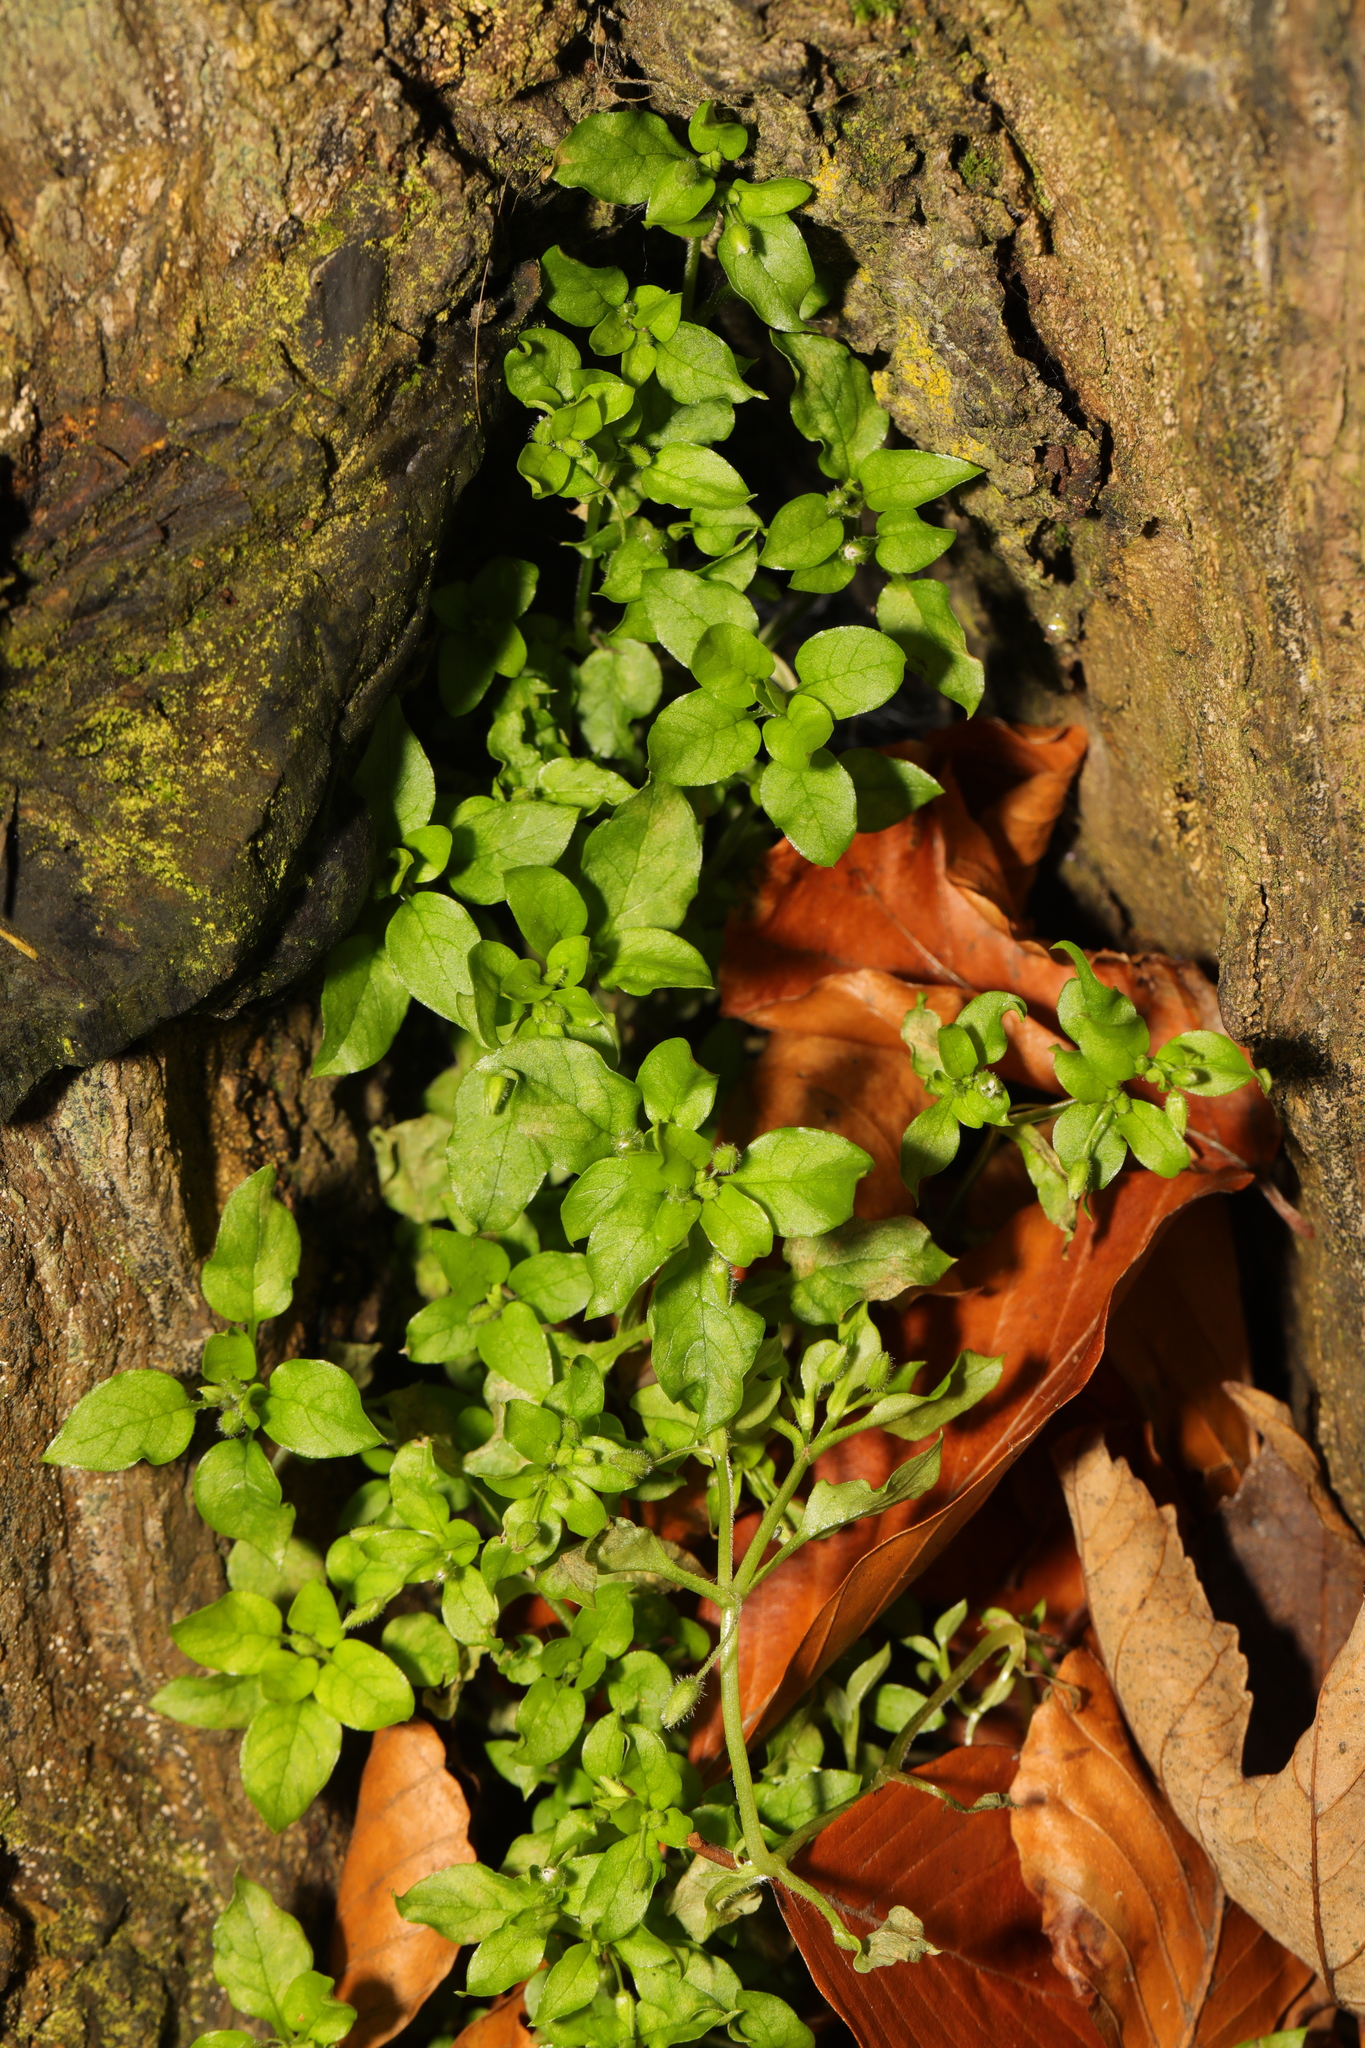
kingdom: Plantae
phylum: Tracheophyta
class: Magnoliopsida
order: Caryophyllales
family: Caryophyllaceae
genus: Stellaria
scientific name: Stellaria media
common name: Common chickweed
